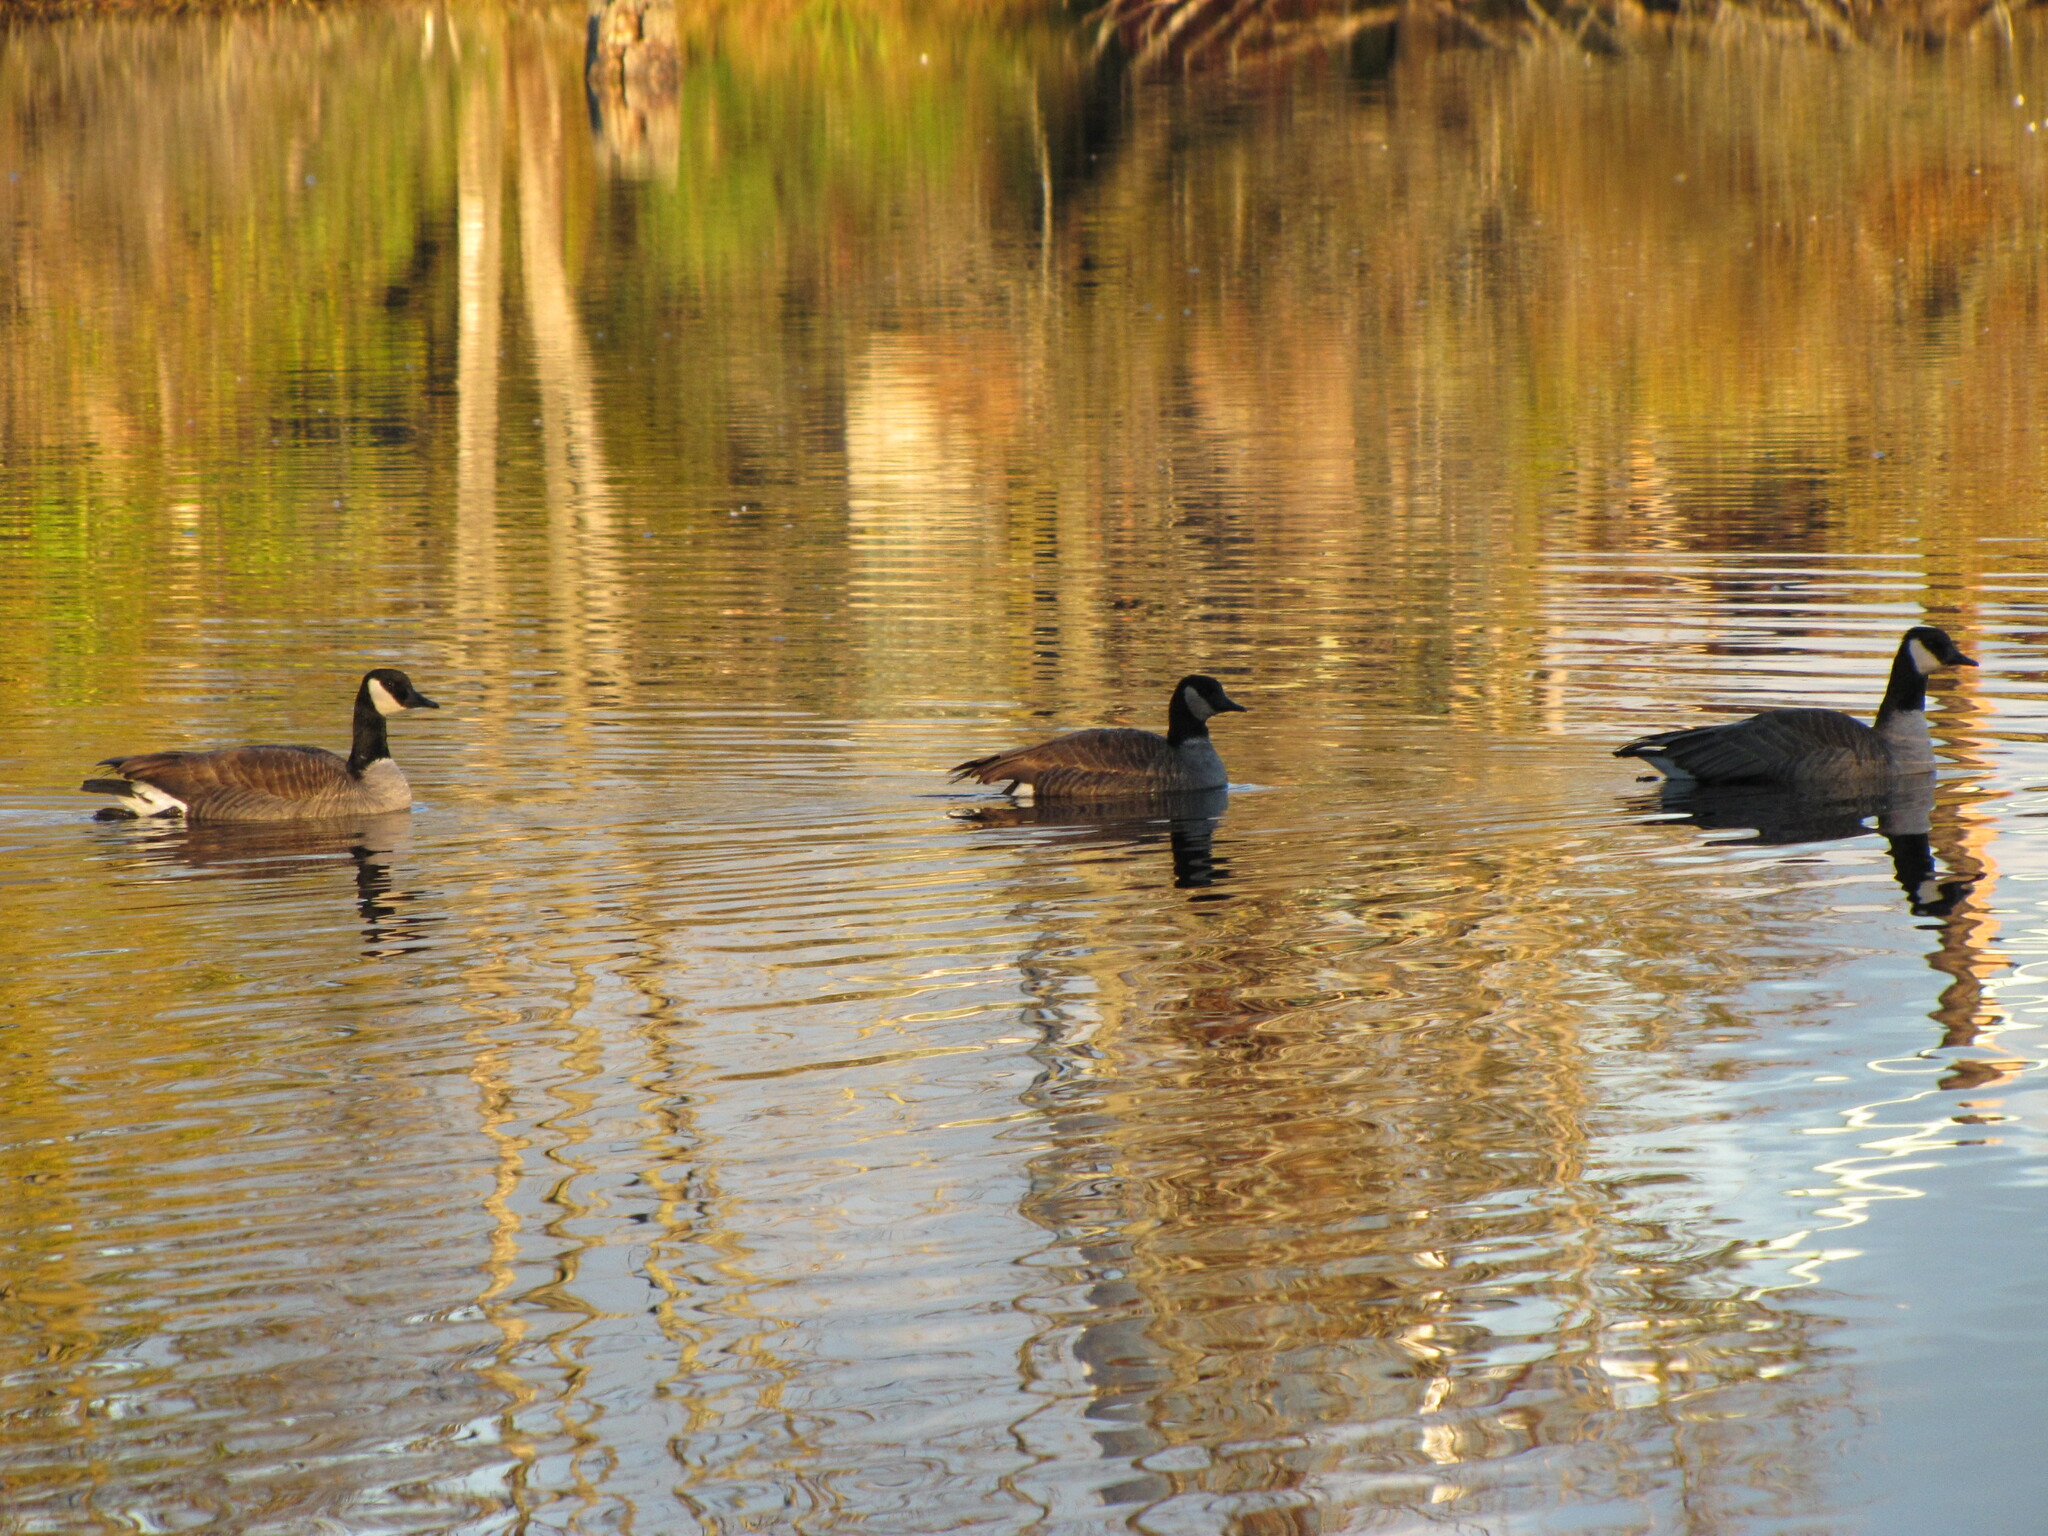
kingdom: Animalia
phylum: Chordata
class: Aves
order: Anseriformes
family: Anatidae
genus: Branta
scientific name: Branta hutchinsii
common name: Cackling goose
